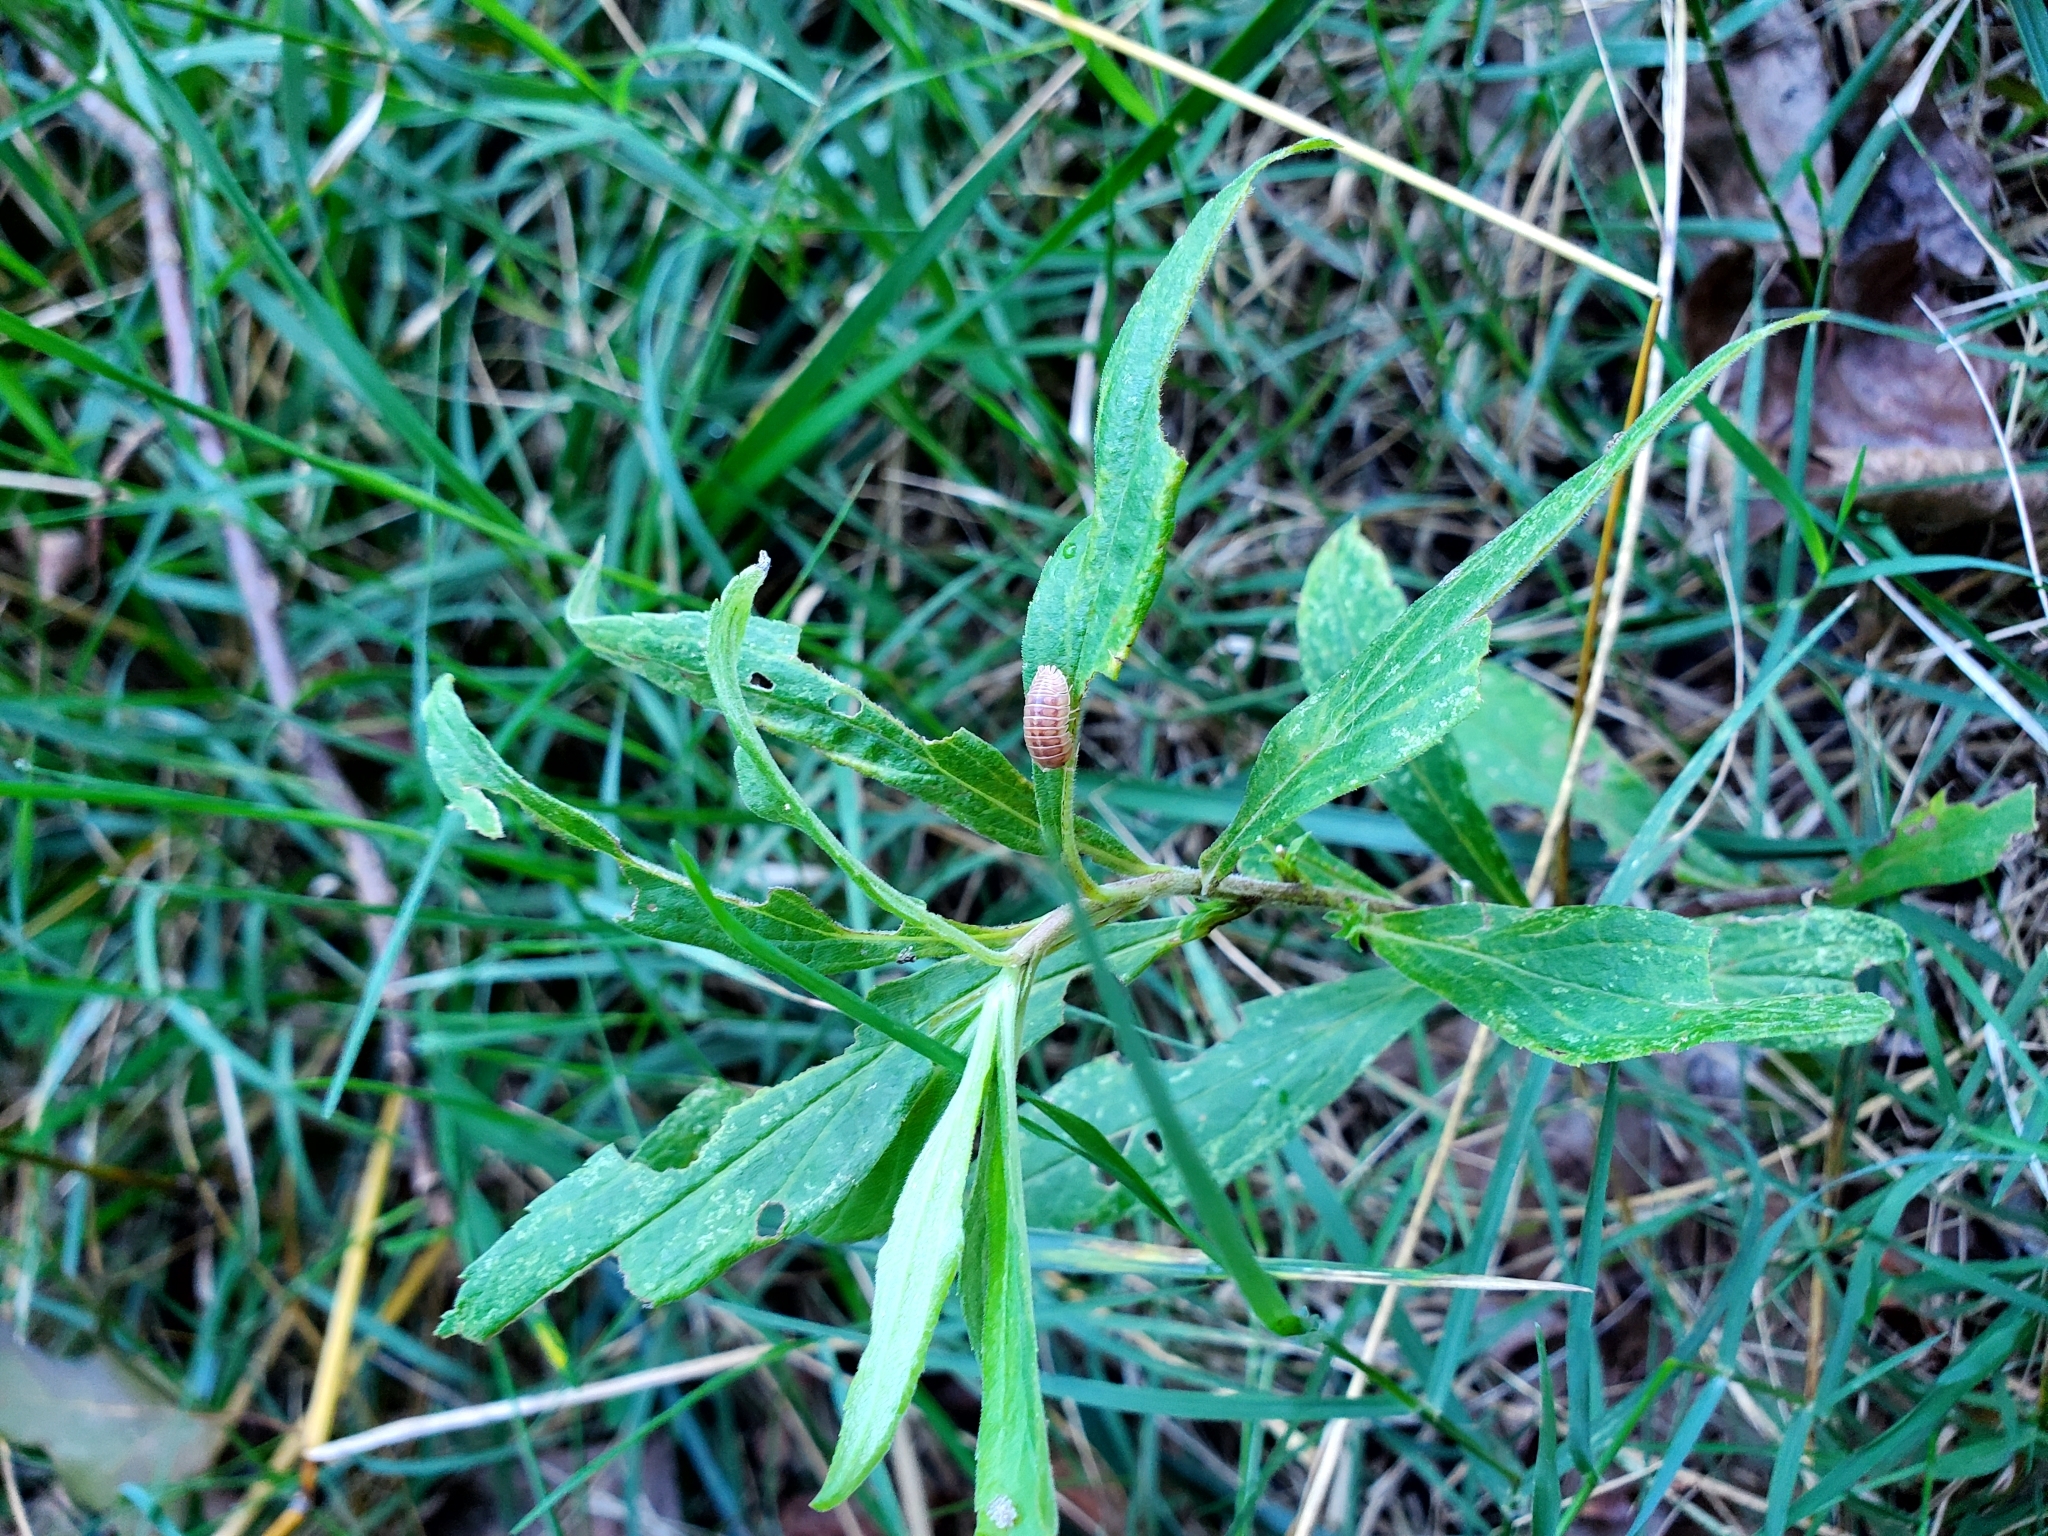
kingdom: Animalia
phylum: Arthropoda
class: Malacostraca
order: Isopoda
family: Armadillidiidae
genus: Armadillidium
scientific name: Armadillidium nasatum
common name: Isopod
